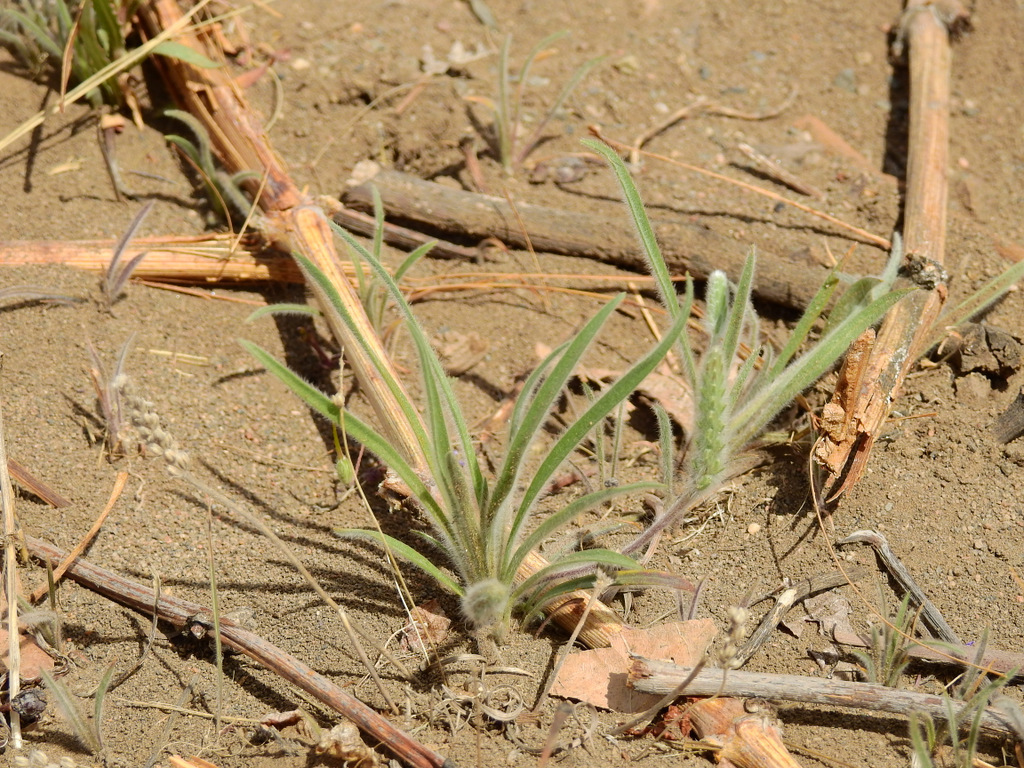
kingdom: Plantae
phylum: Tracheophyta
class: Magnoliopsida
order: Lamiales
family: Plantaginaceae
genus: Plantago
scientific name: Plantago patagonica
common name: Patagonia indian-wheat
